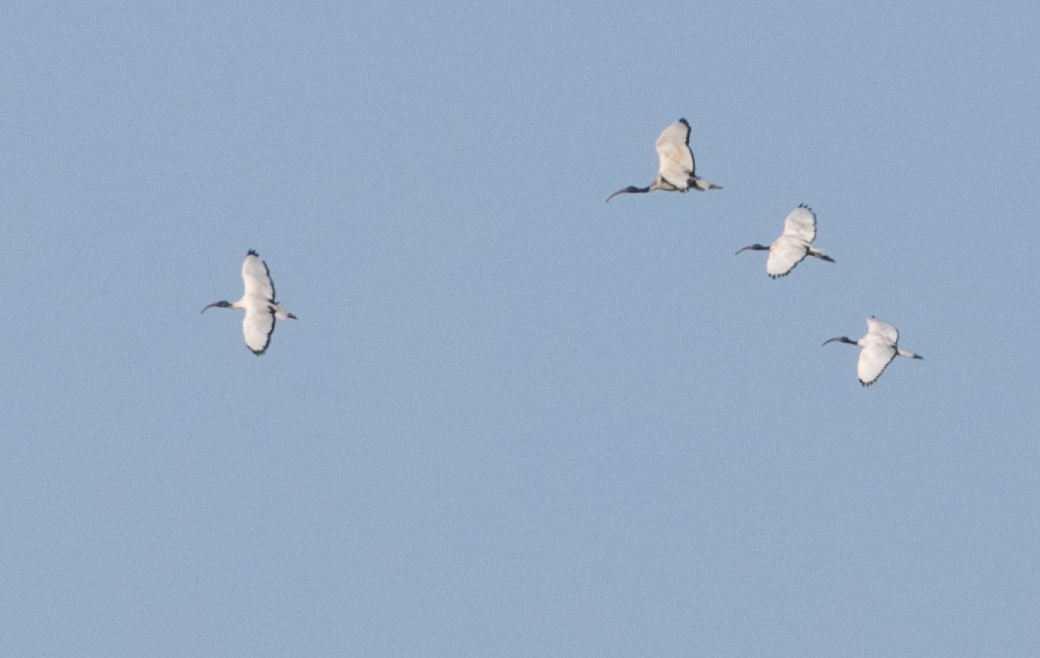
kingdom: Animalia
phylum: Chordata
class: Aves
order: Pelecaniformes
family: Threskiornithidae
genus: Threskiornis
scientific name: Threskiornis aethiopicus
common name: Sacred ibis
